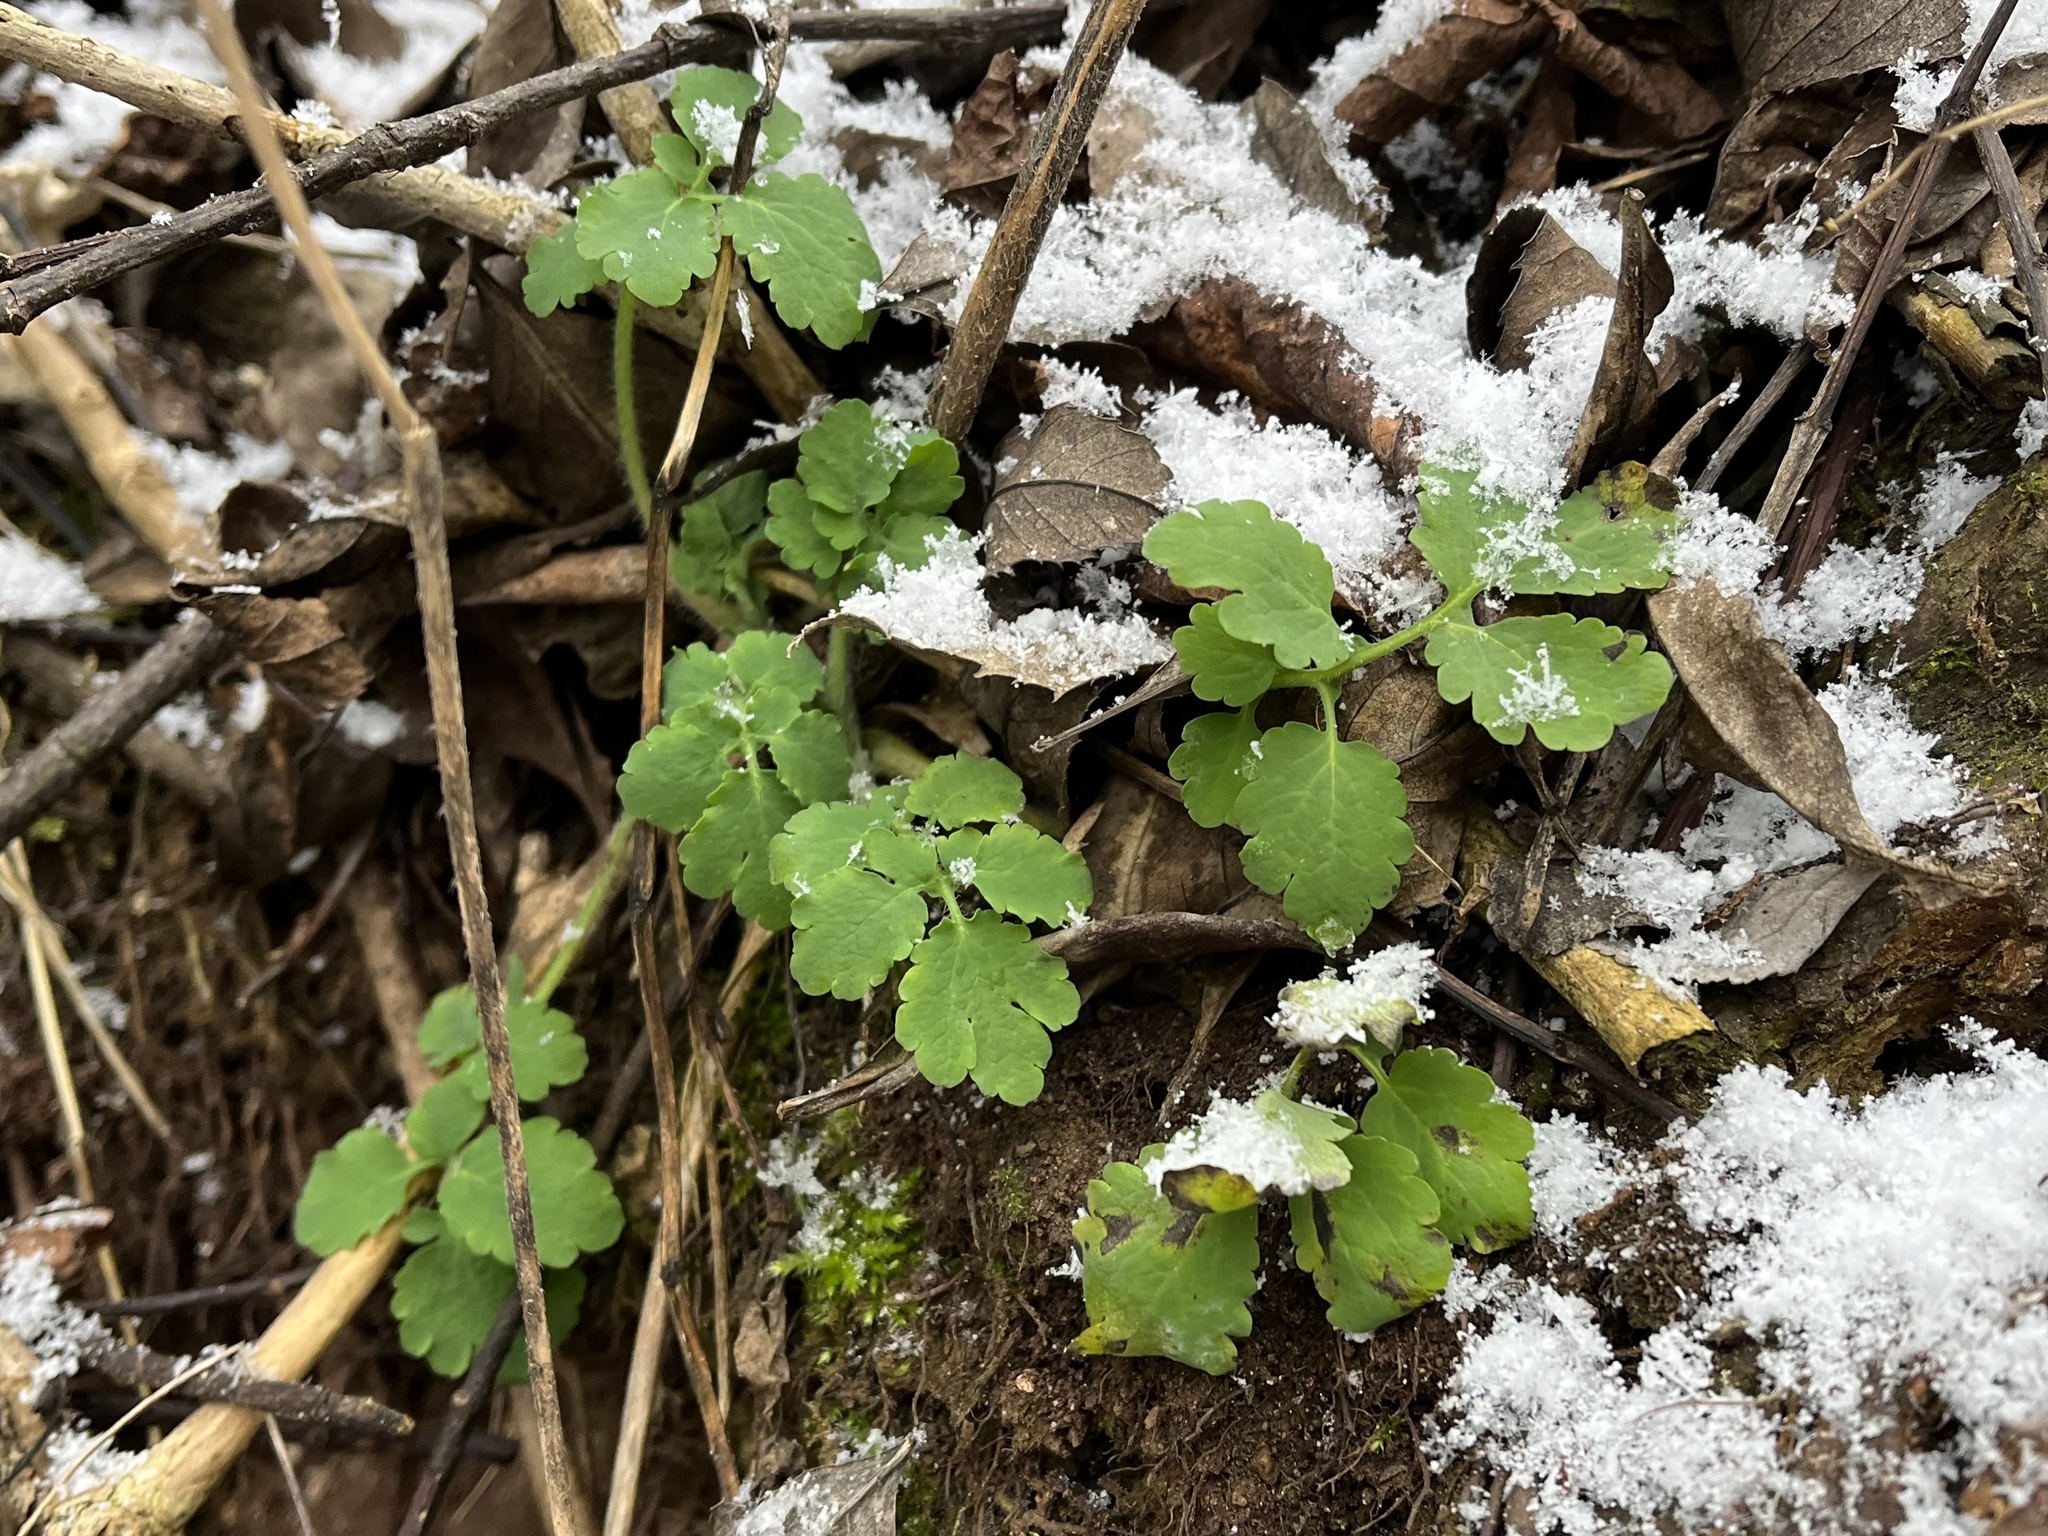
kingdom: Plantae
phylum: Tracheophyta
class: Magnoliopsida
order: Ranunculales
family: Papaveraceae
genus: Chelidonium
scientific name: Chelidonium majus
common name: Greater celandine
